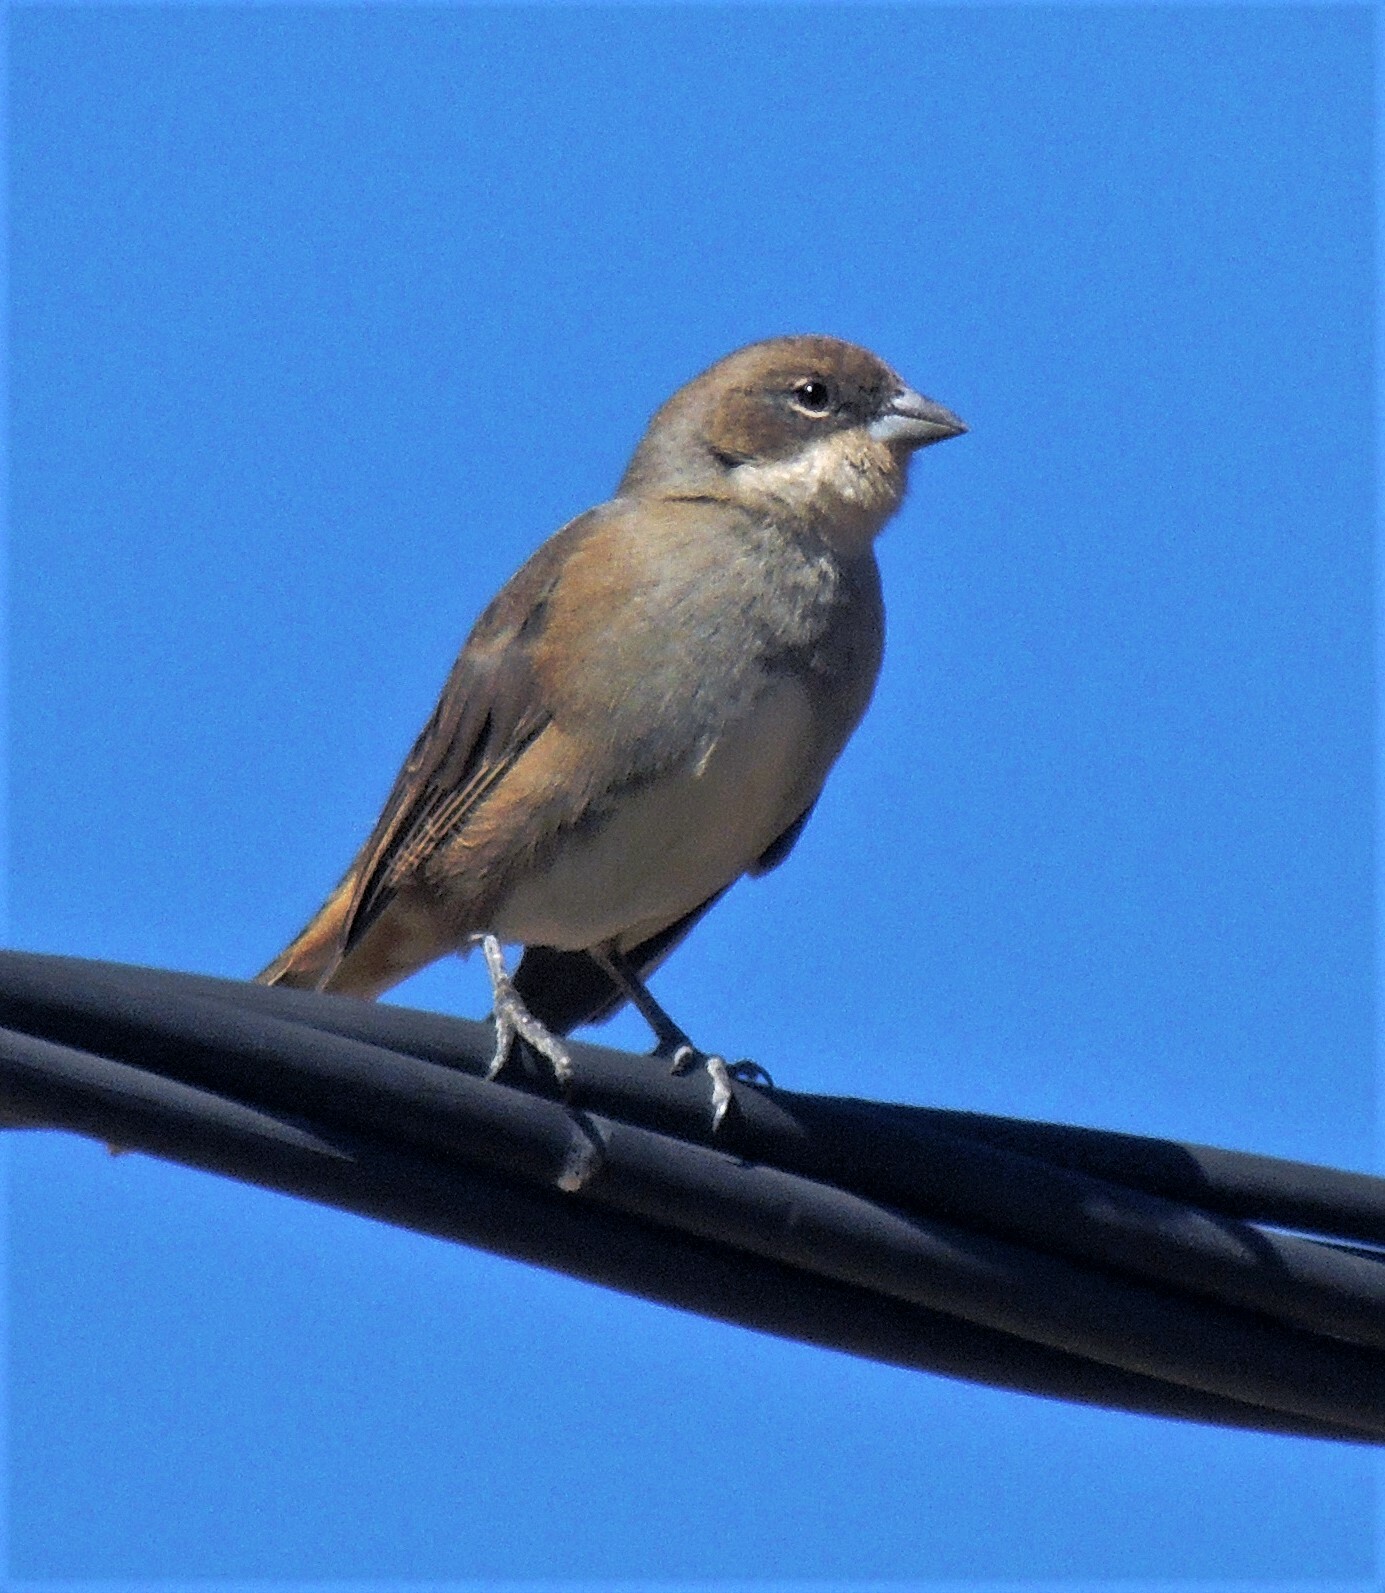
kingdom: Animalia
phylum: Chordata
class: Aves
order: Passeriformes
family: Thraupidae
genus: Diuca
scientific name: Diuca diuca
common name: Common diuca finch
